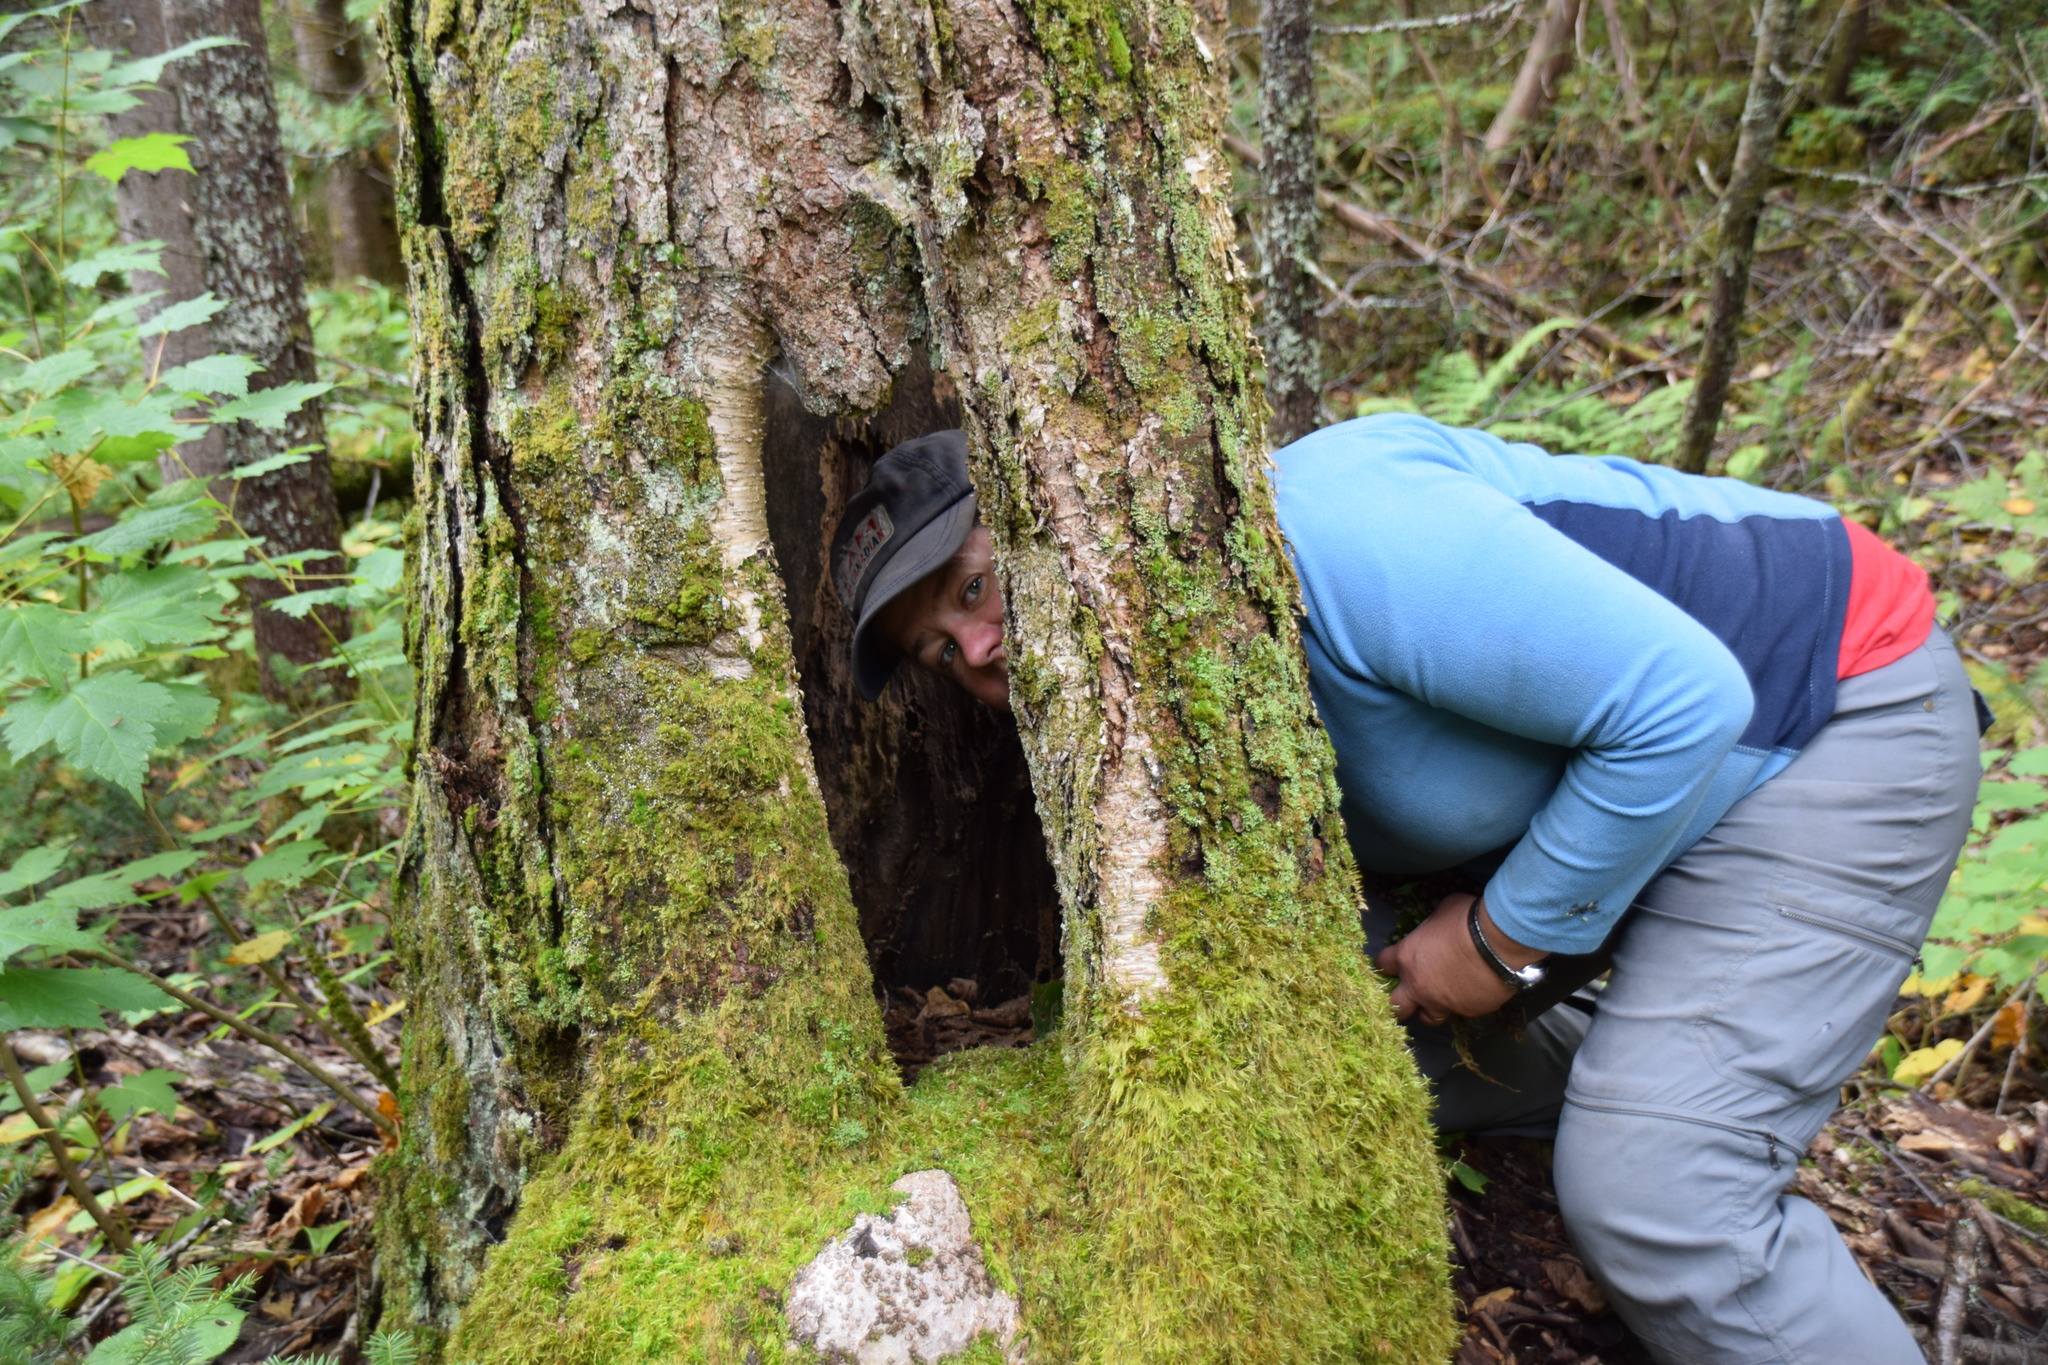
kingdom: Plantae
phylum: Tracheophyta
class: Magnoliopsida
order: Fagales
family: Betulaceae
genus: Betula
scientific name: Betula alleghaniensis
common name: Yellow birch
